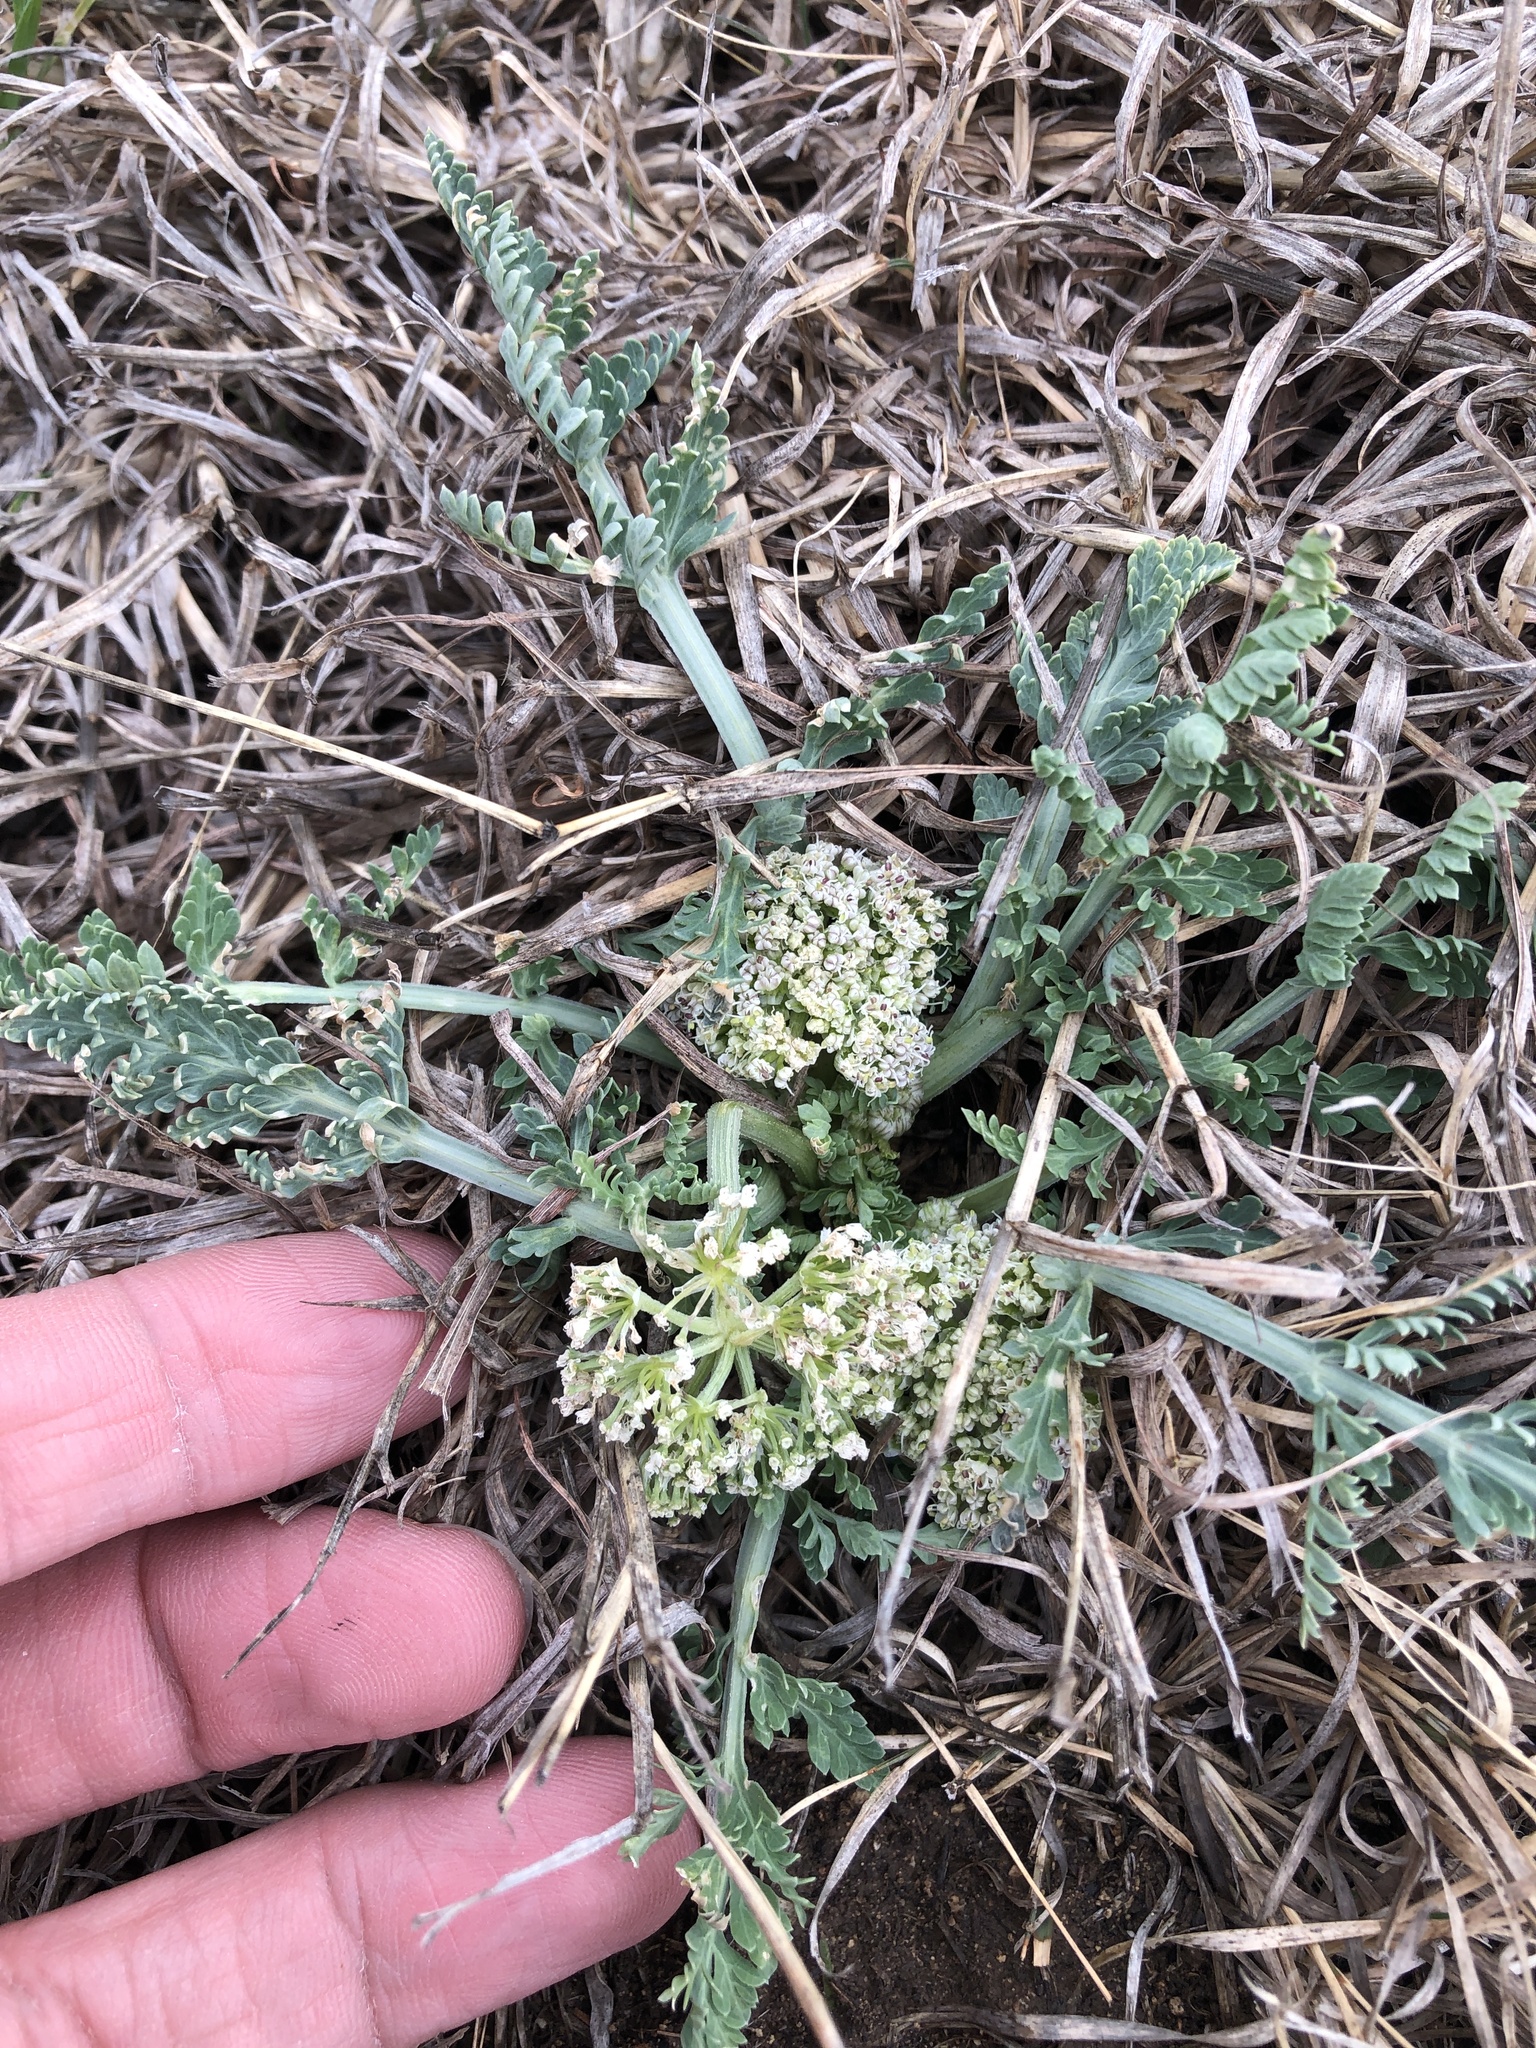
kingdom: Plantae
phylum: Tracheophyta
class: Magnoliopsida
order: Apiales
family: Apiaceae
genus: Vesper
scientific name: Vesper macrorhizus
